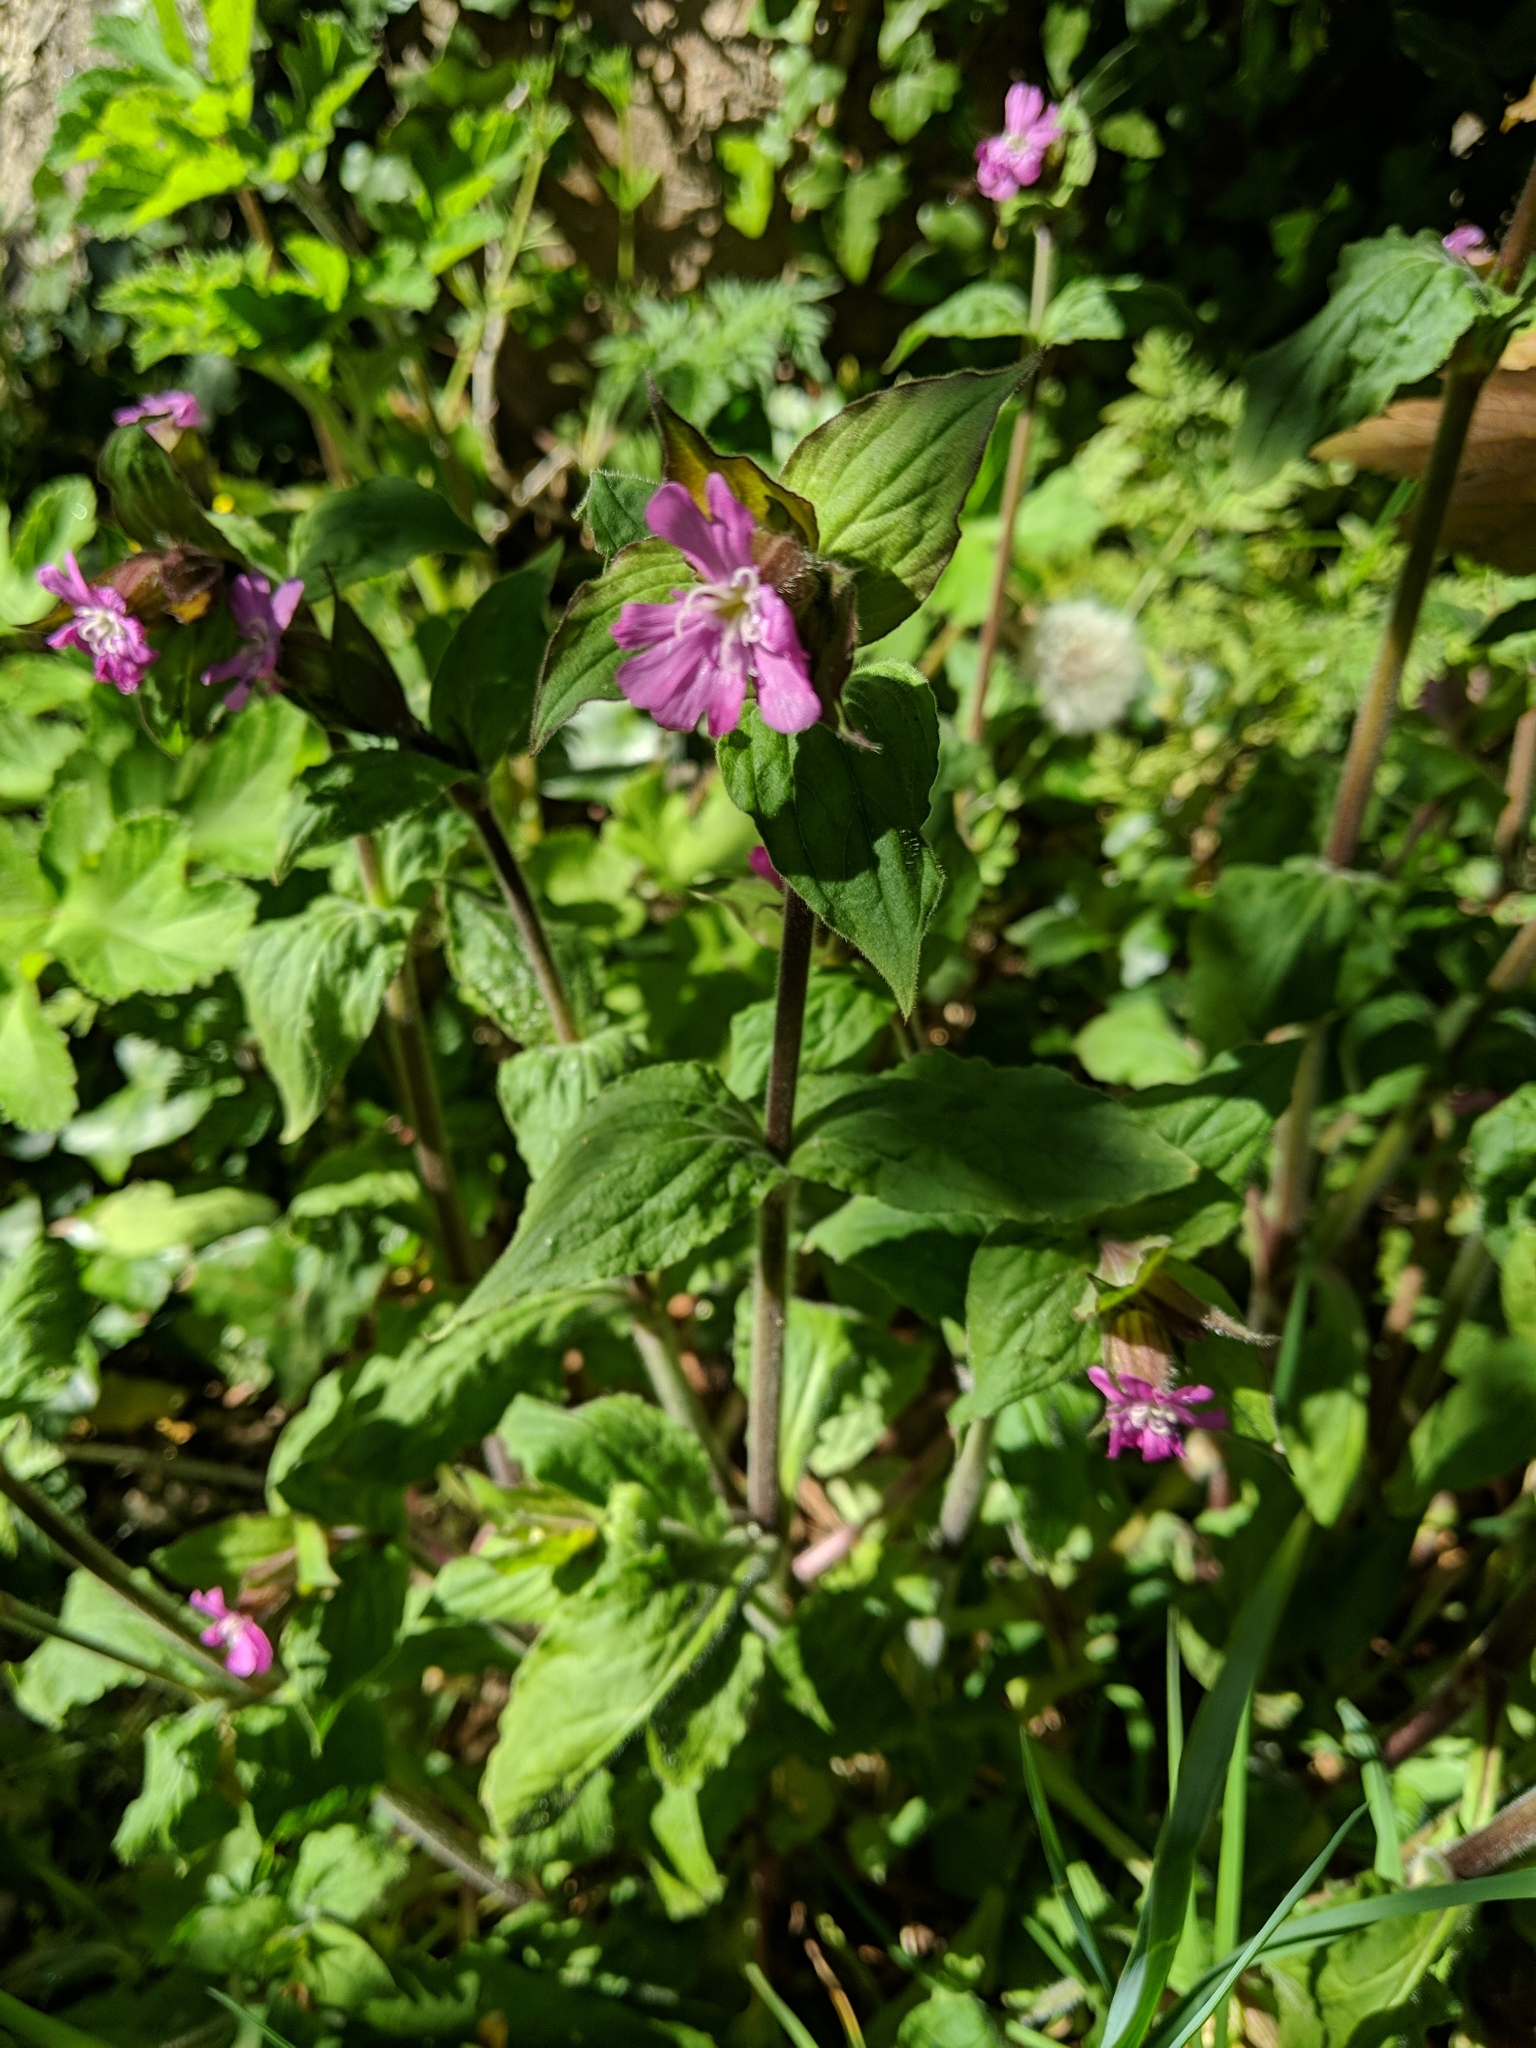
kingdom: Plantae
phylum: Tracheophyta
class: Magnoliopsida
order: Caryophyllales
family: Caryophyllaceae
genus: Silene
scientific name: Silene dioica
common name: Red campion
